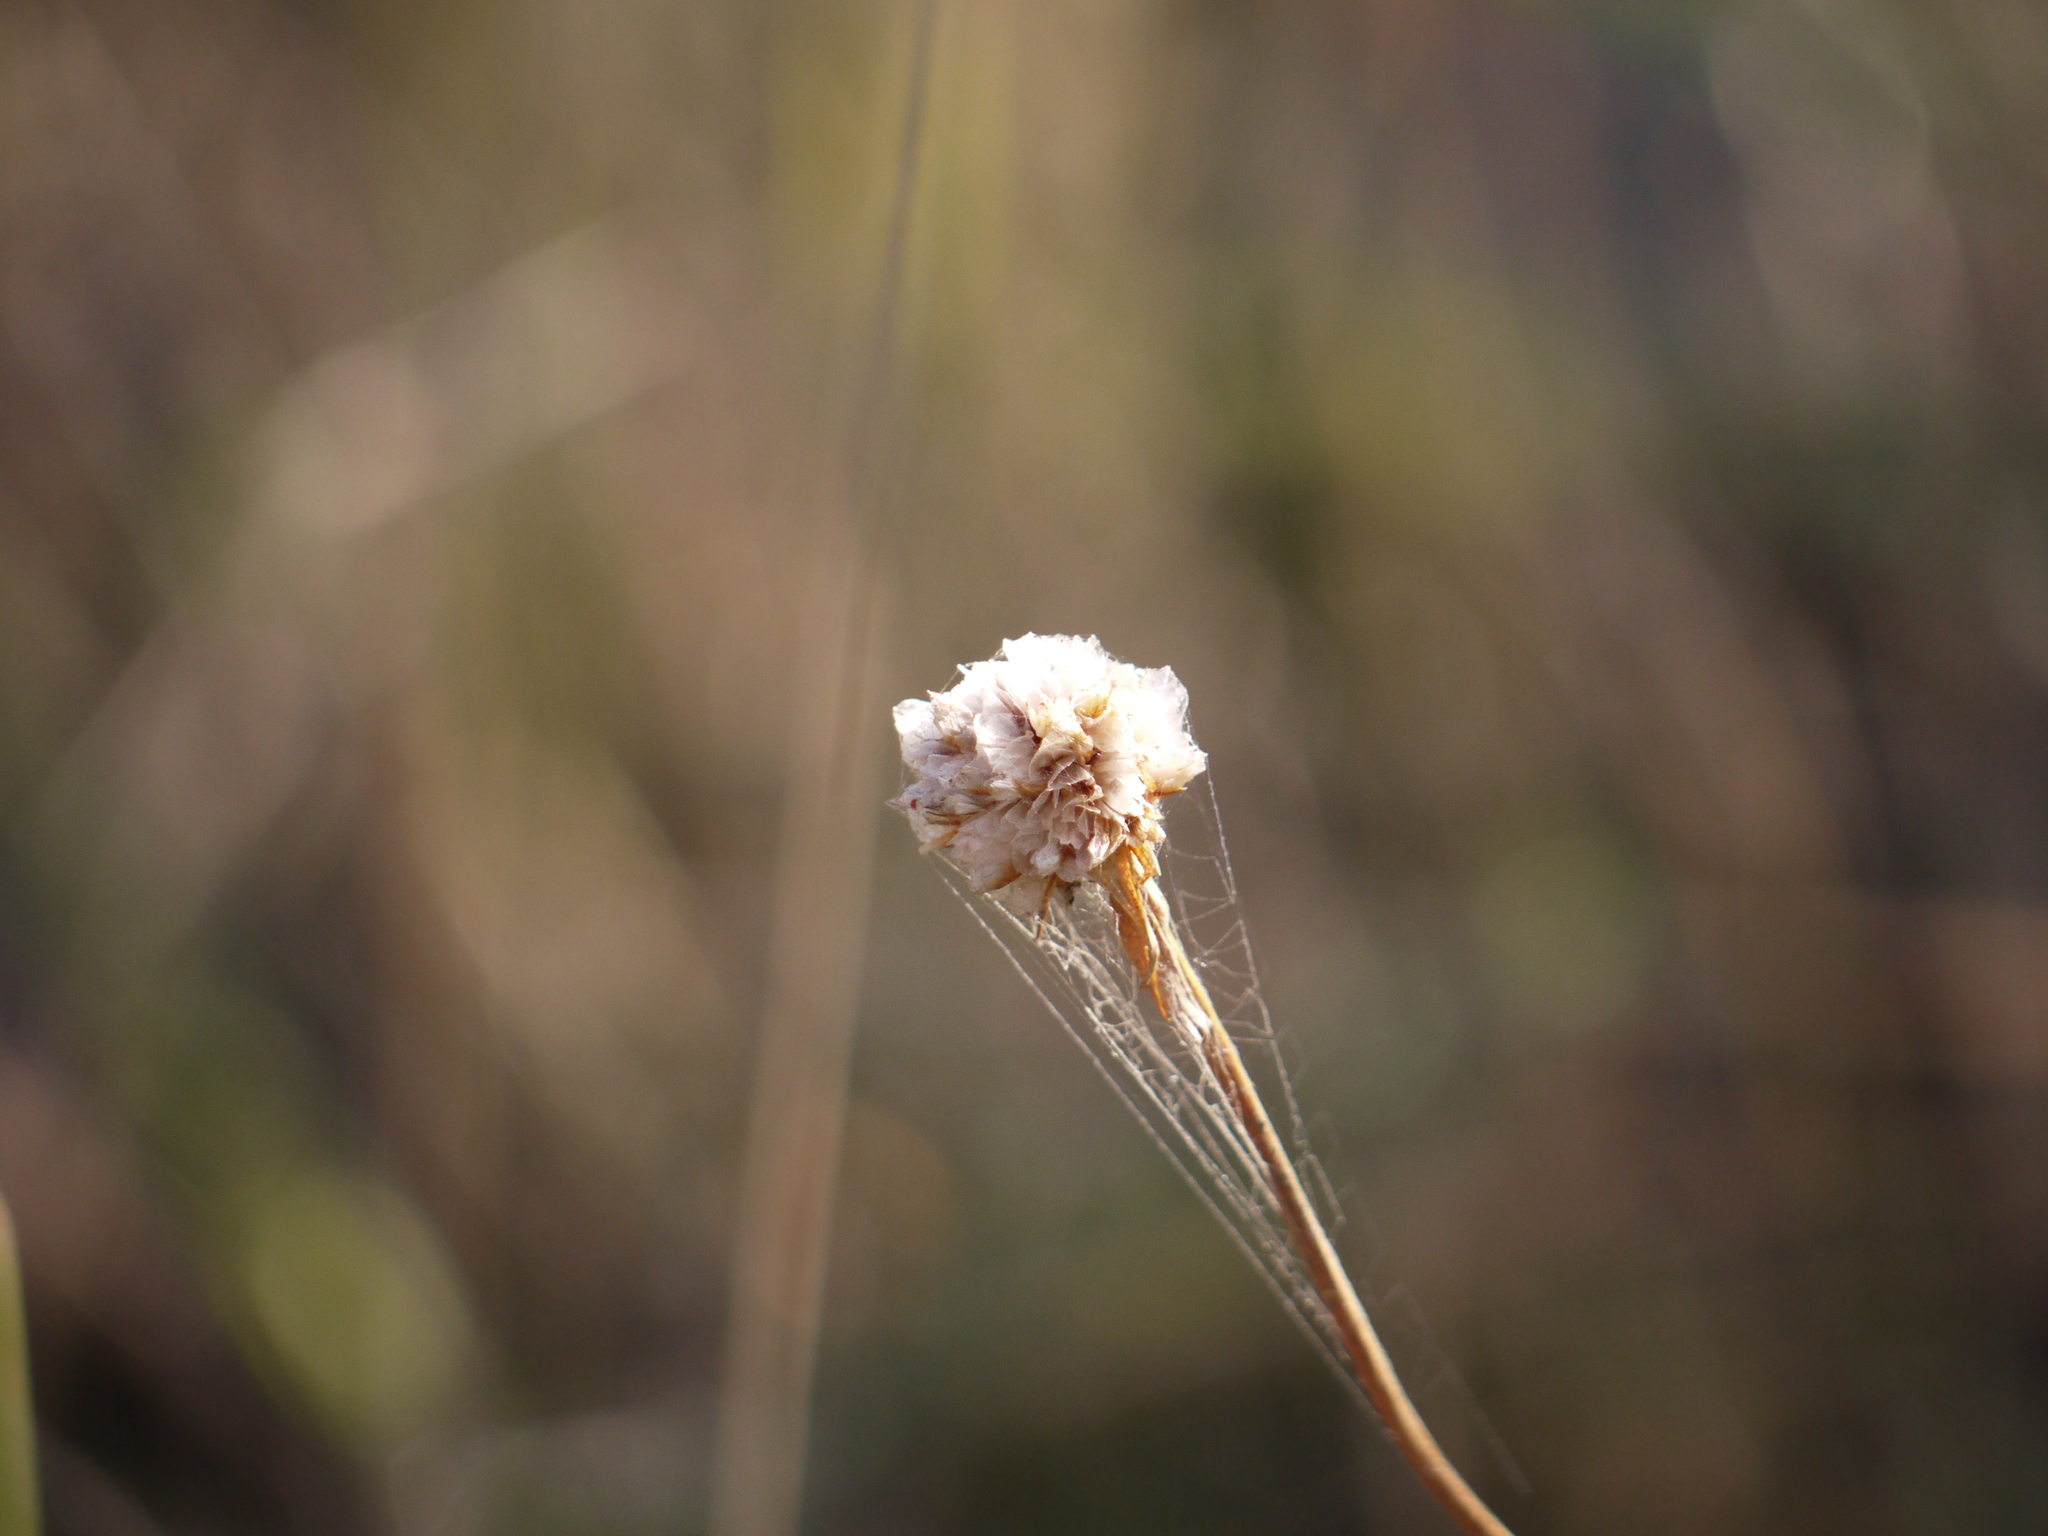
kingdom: Plantae
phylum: Tracheophyta
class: Magnoliopsida
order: Caryophyllales
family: Plumbaginaceae
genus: Armeria
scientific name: Armeria maritima
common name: Thrift
